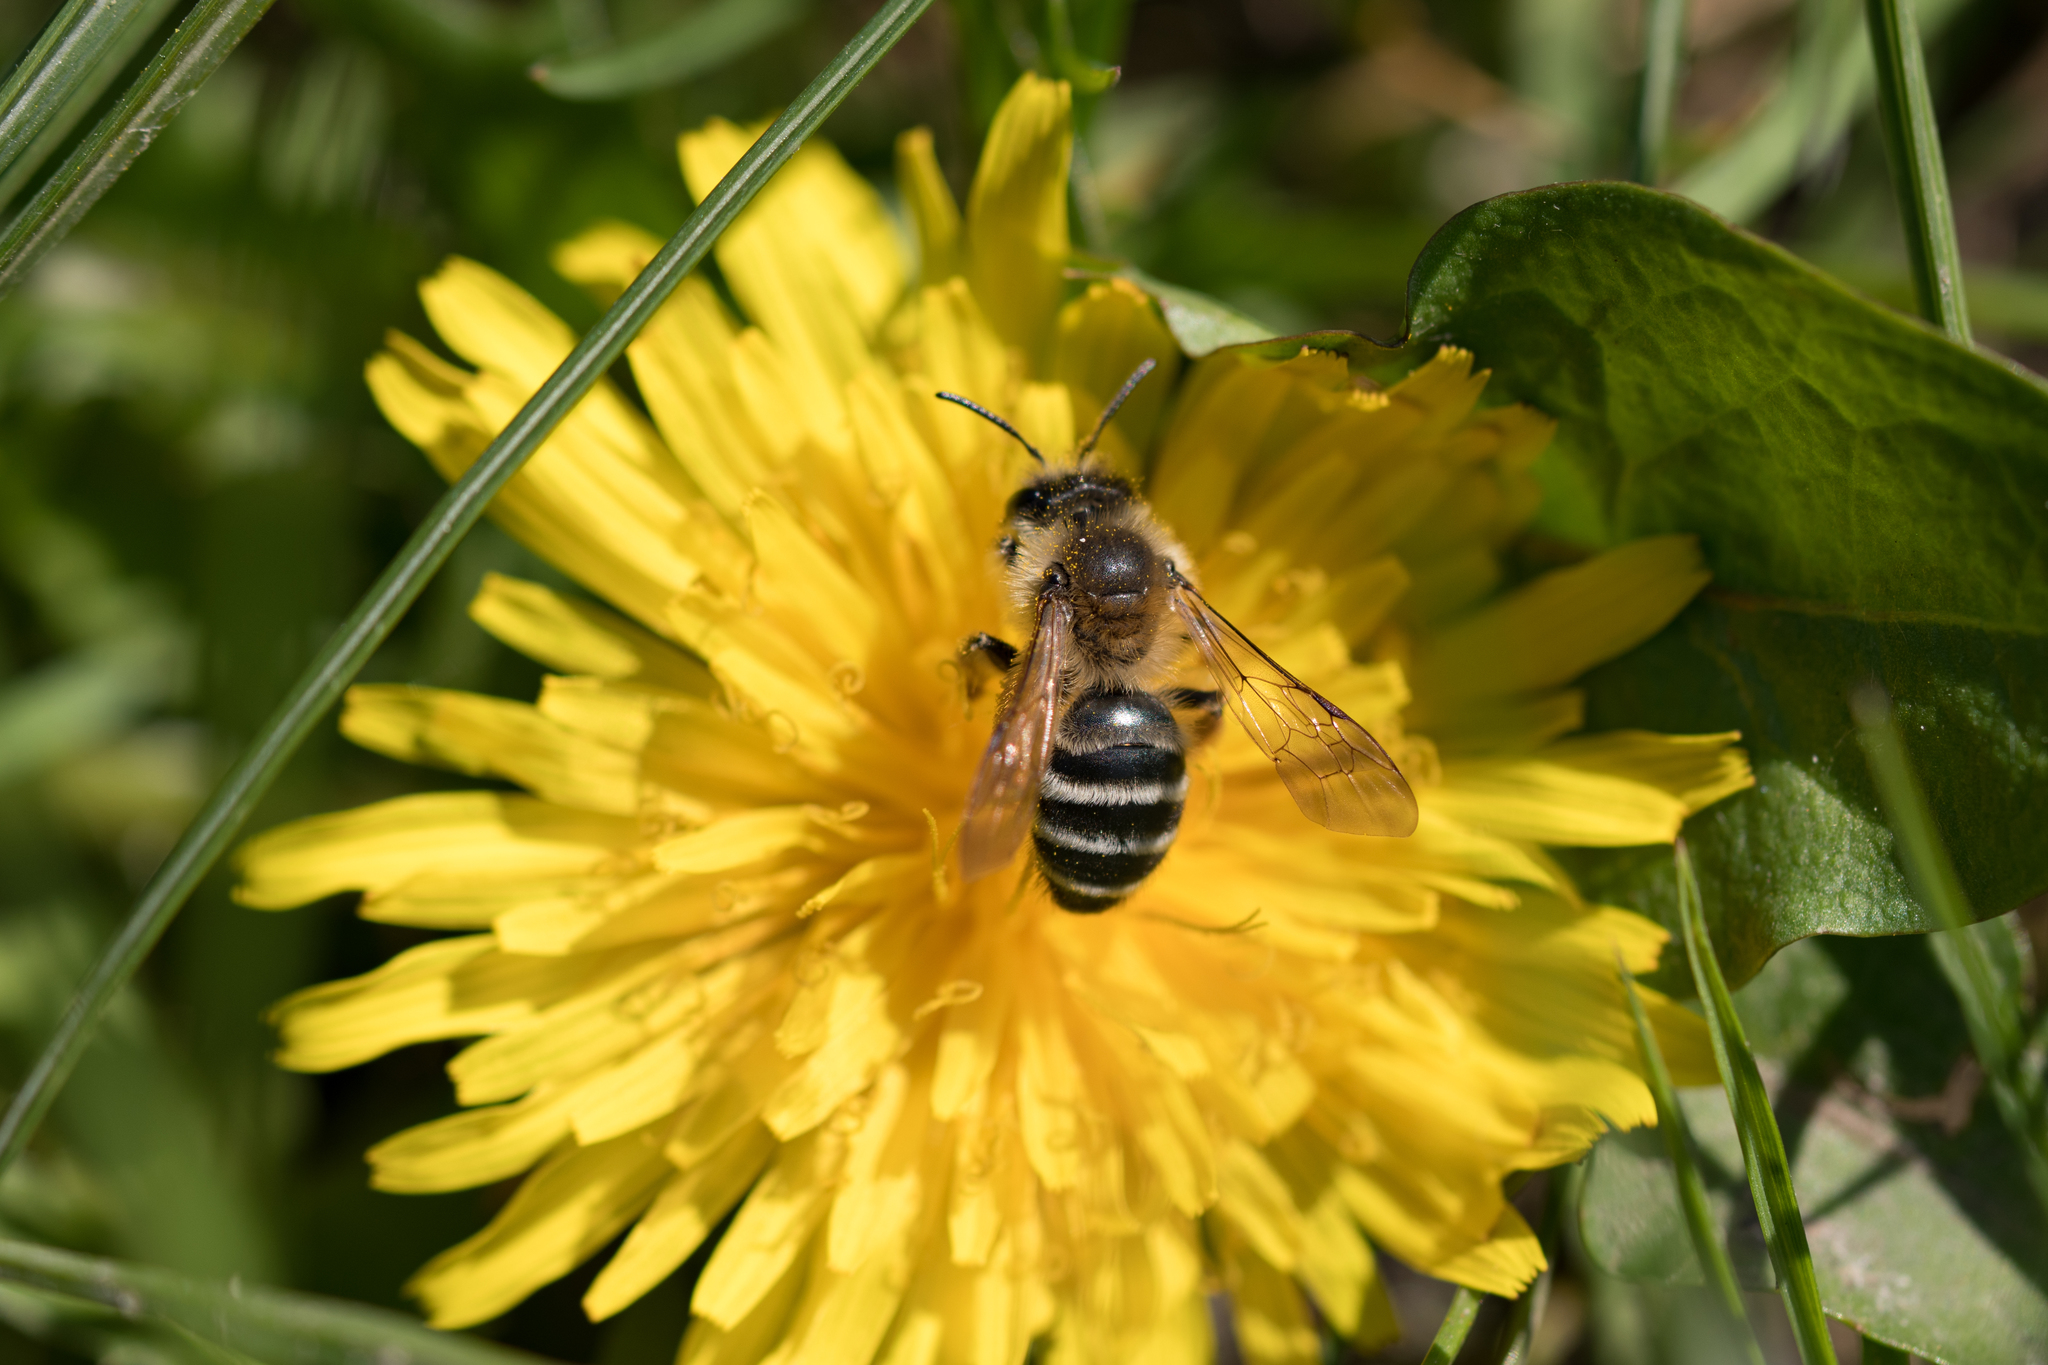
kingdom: Animalia
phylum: Arthropoda
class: Insecta
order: Hymenoptera
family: Andrenidae
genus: Andrena
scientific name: Andrena gravida
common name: White-bellied mining bee
